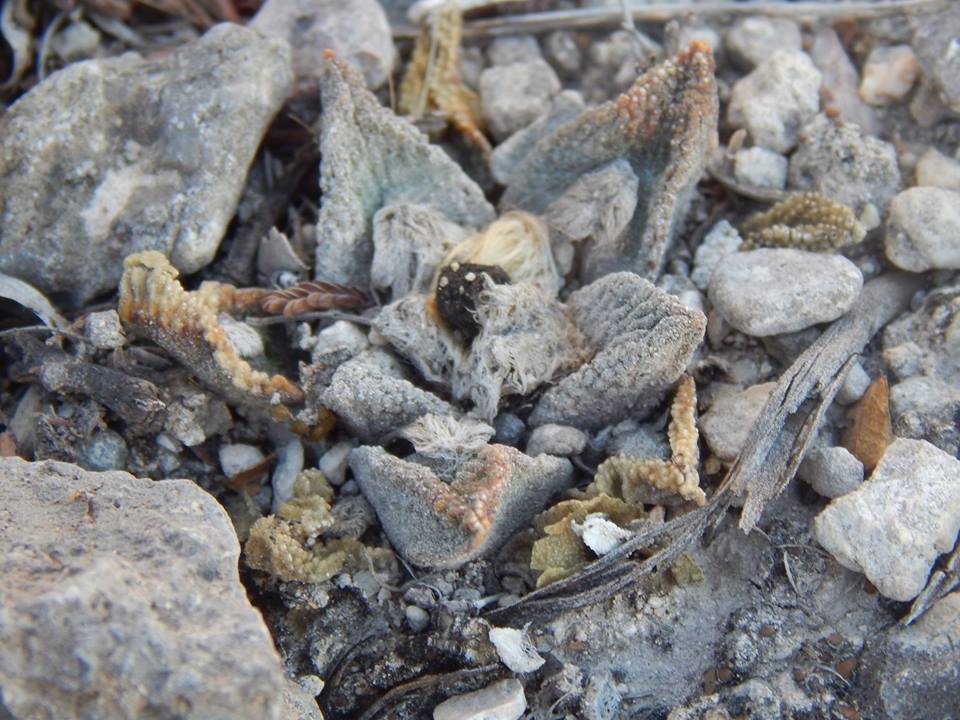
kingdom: Plantae
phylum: Tracheophyta
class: Magnoliopsida
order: Caryophyllales
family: Cactaceae
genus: Ariocarpus
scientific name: Ariocarpus bravoanus
